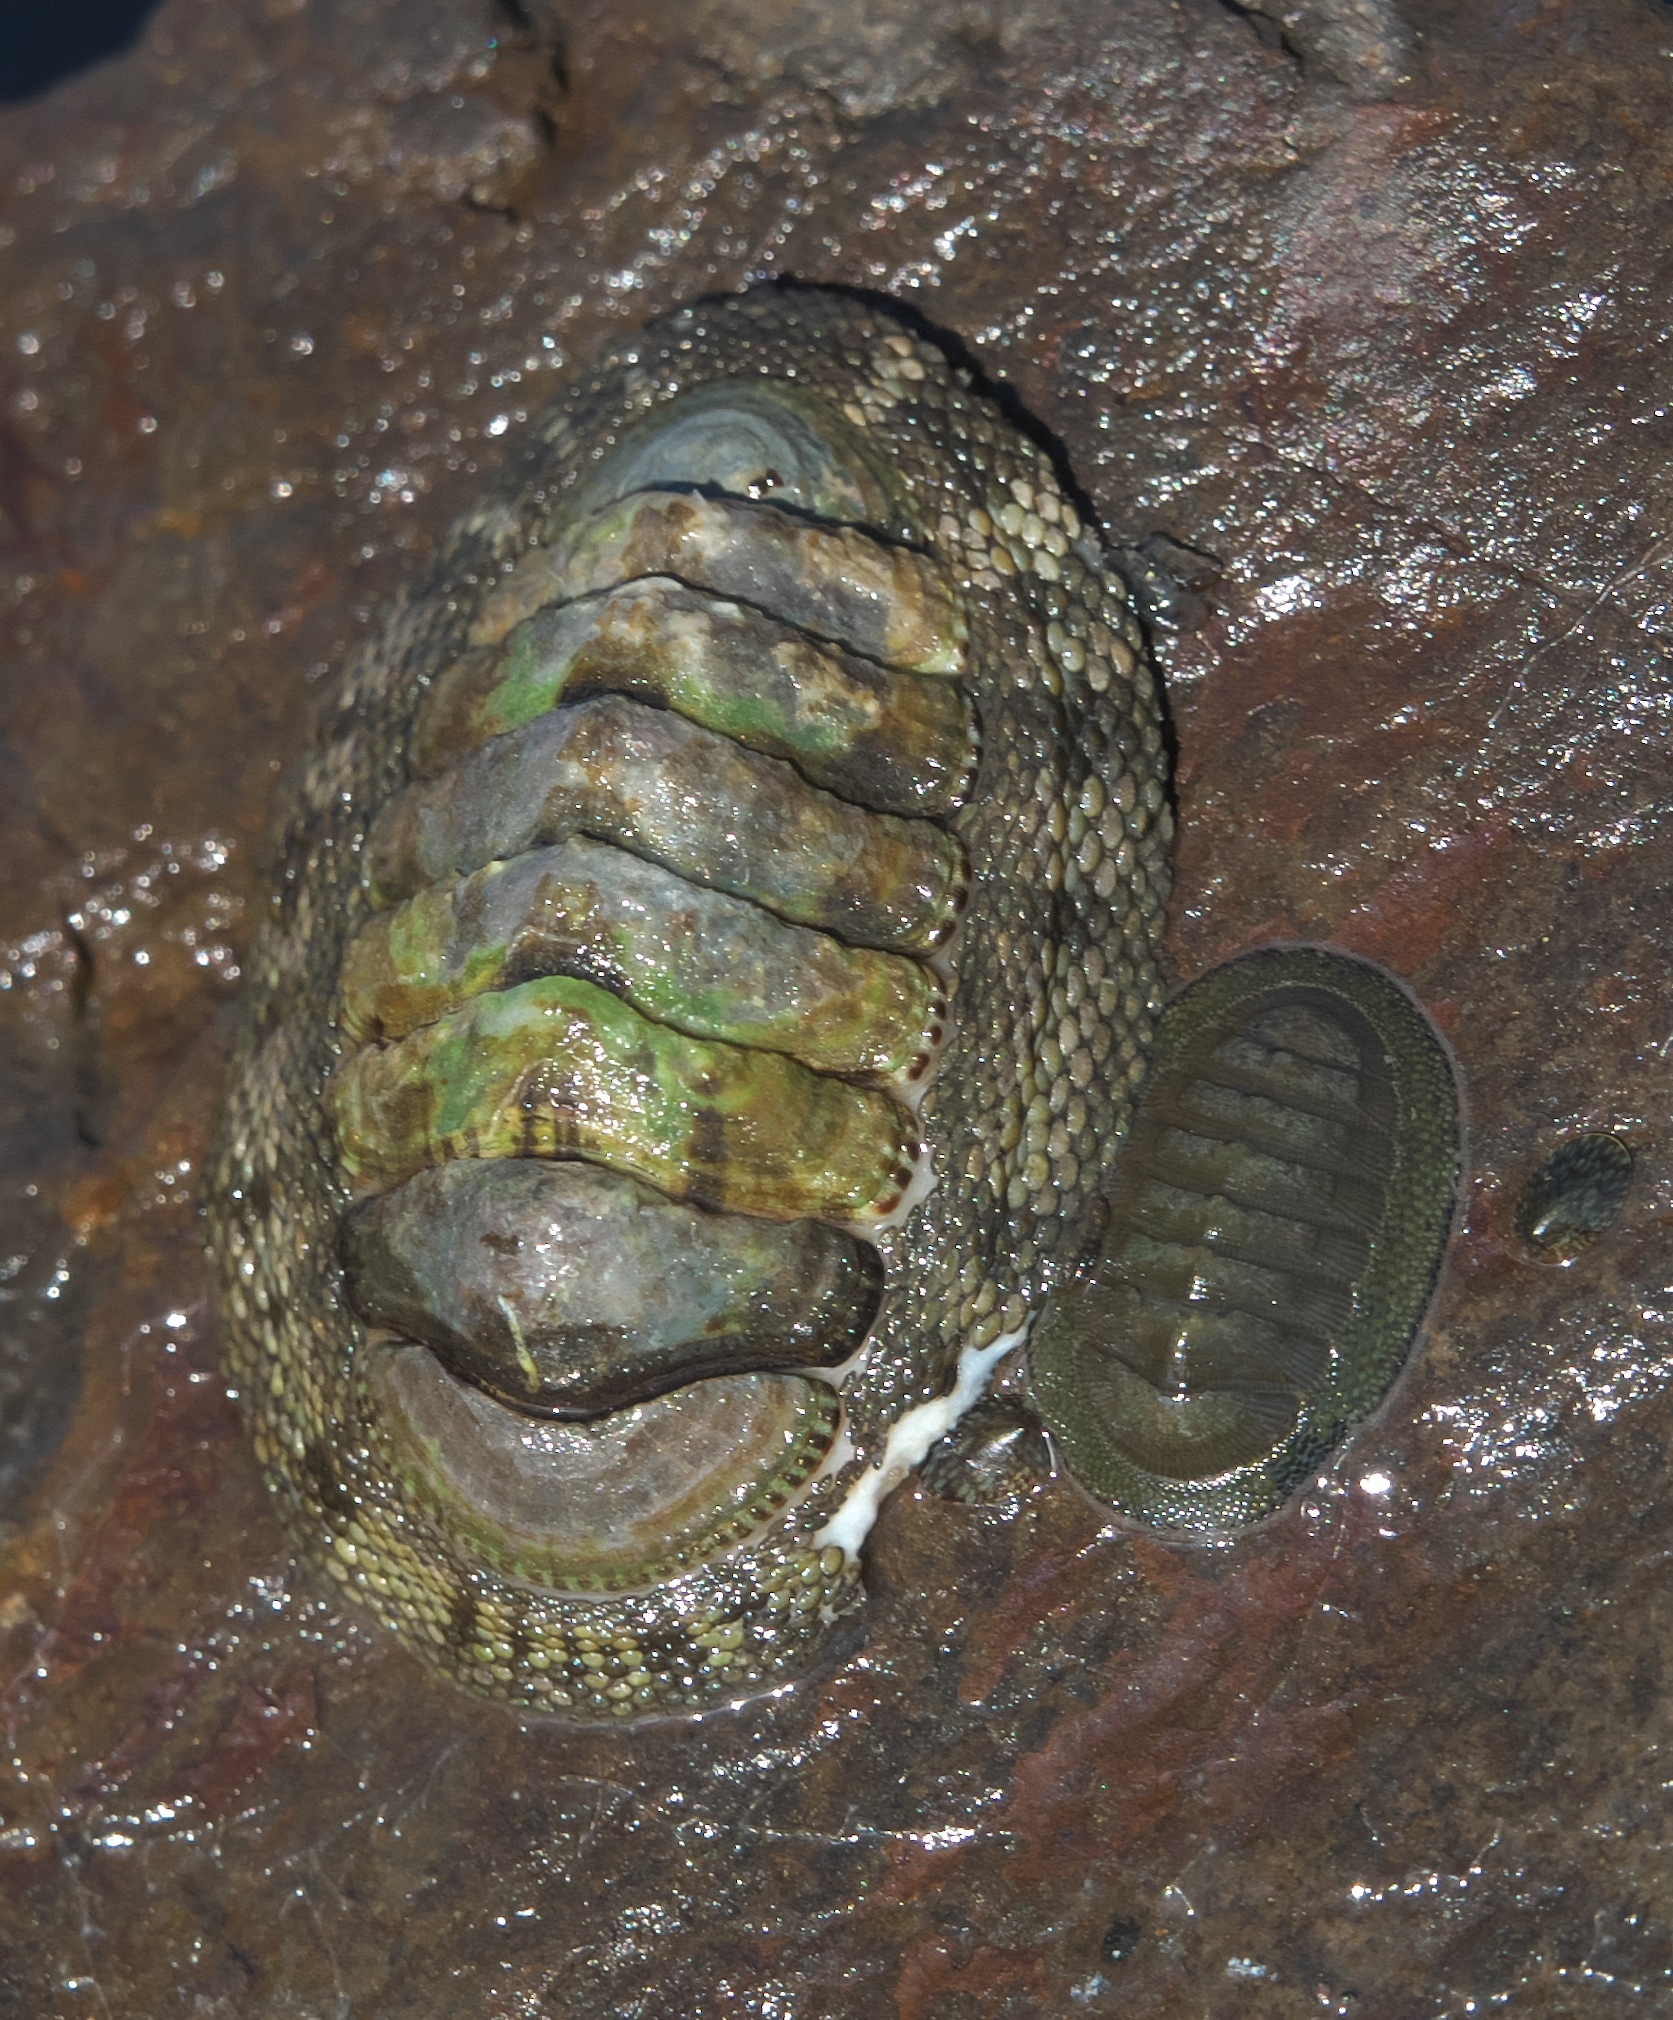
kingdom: Animalia
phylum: Mollusca
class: Polyplacophora
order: Chitonida
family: Chitonidae
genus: Sypharochiton
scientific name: Sypharochiton pelliserpentis
